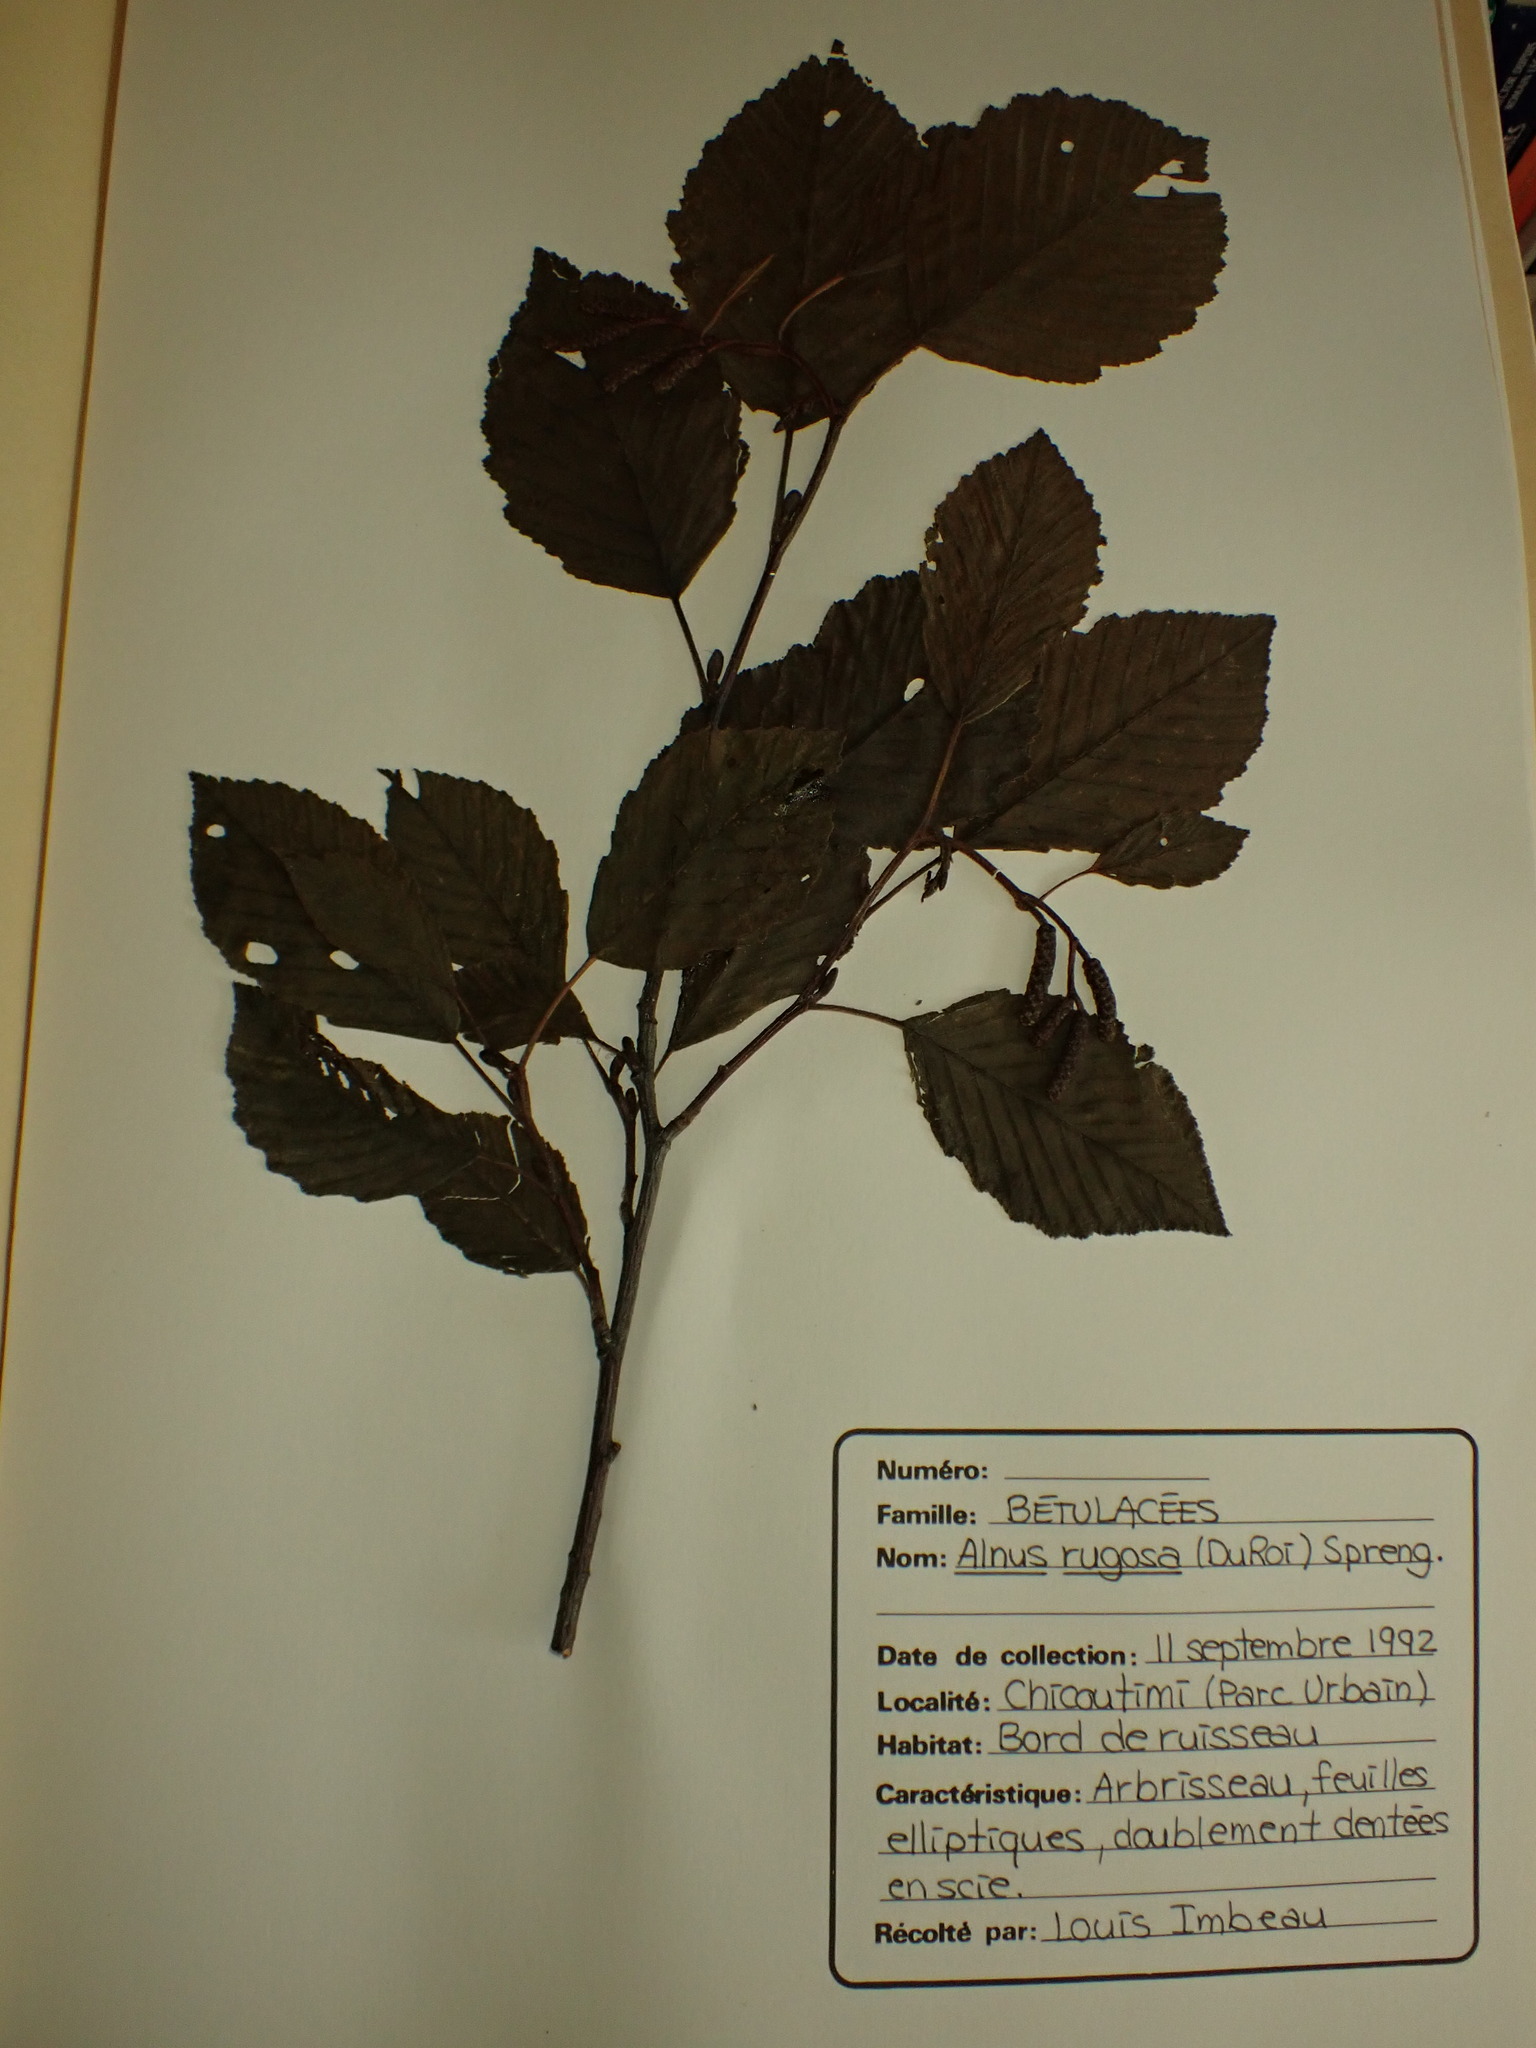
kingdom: Plantae
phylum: Tracheophyta
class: Magnoliopsida
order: Fagales
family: Betulaceae
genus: Alnus
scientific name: Alnus incana
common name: Grey alder
